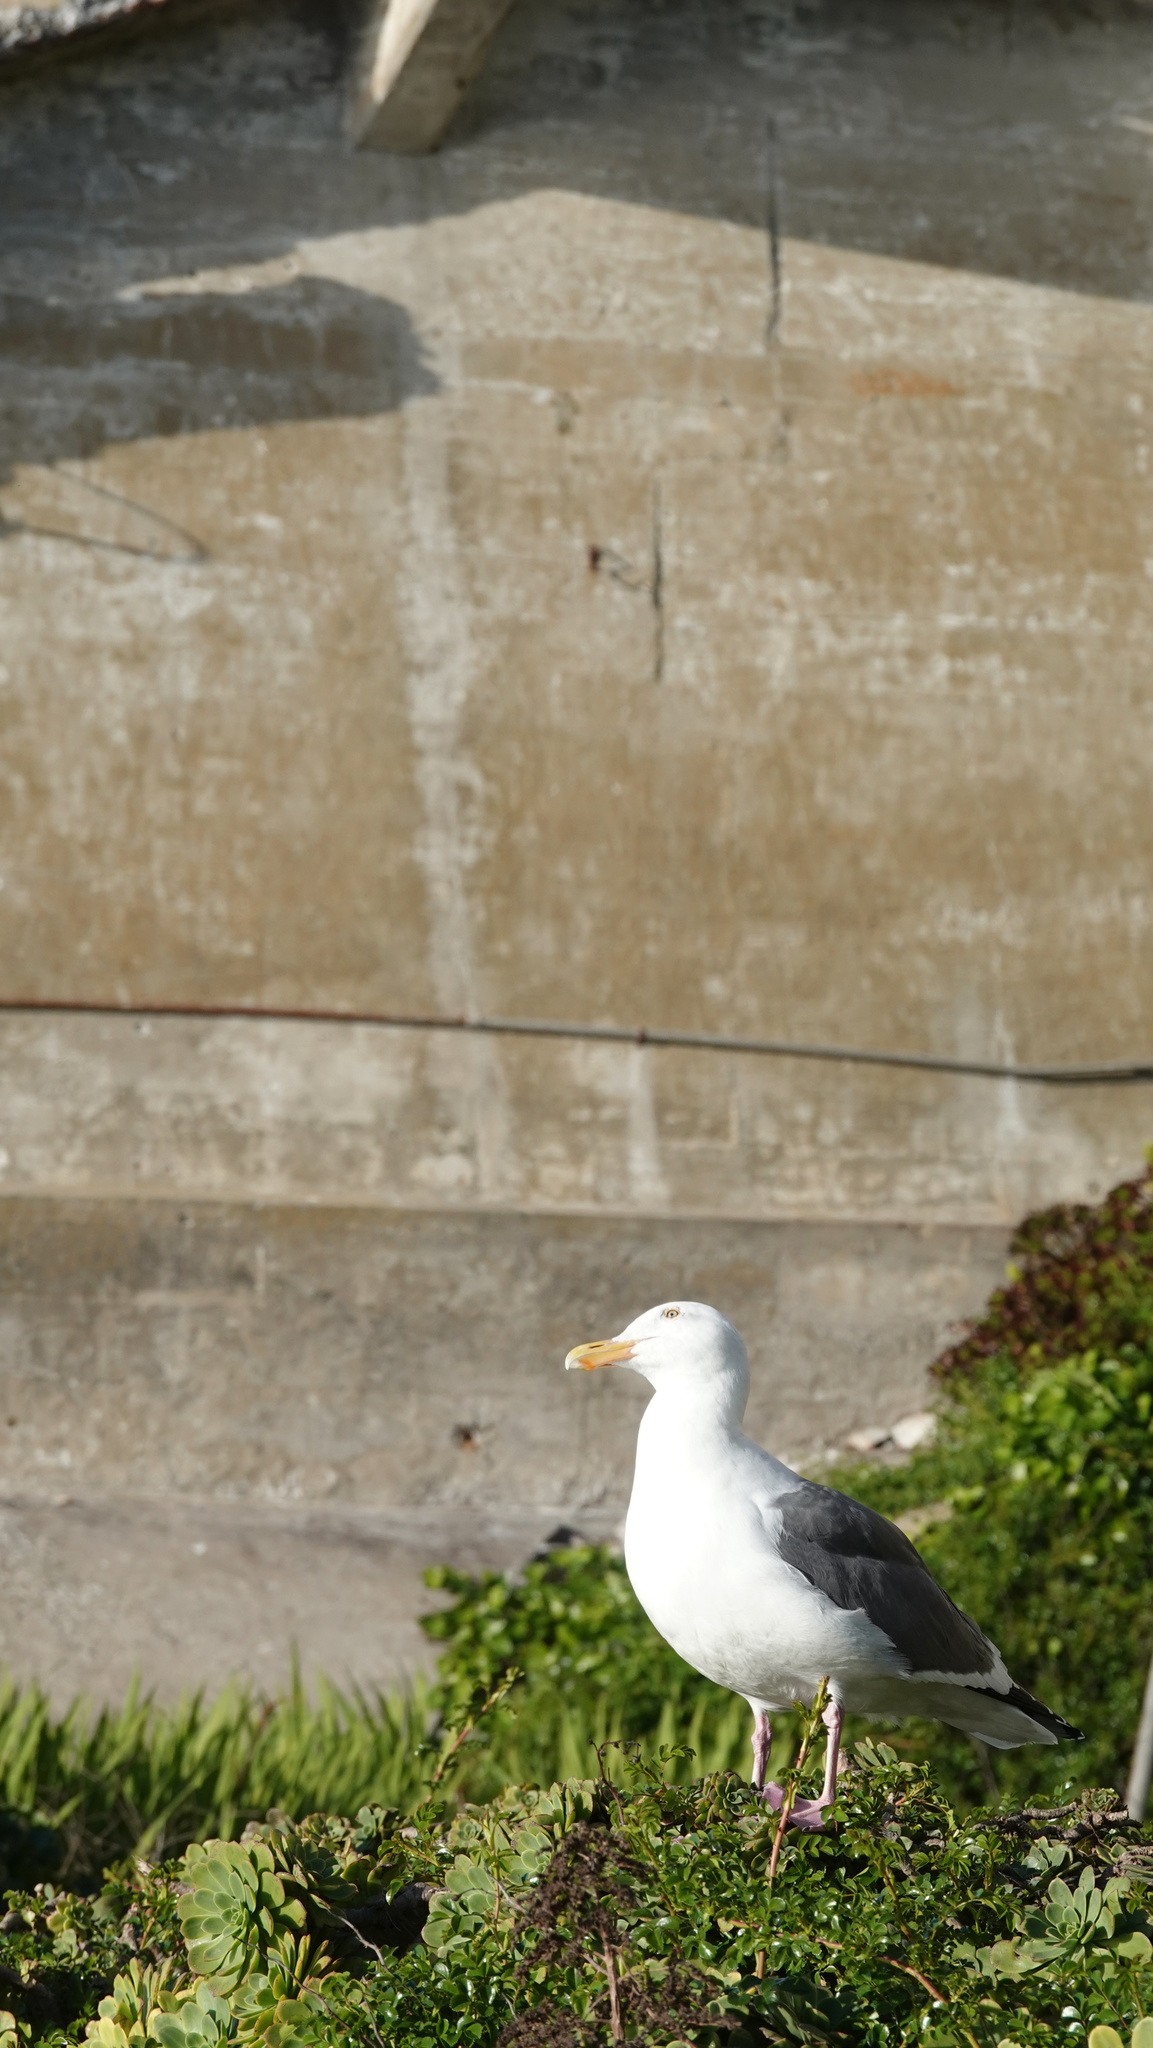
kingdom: Animalia
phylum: Chordata
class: Aves
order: Charadriiformes
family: Laridae
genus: Larus
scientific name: Larus occidentalis
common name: Western gull
